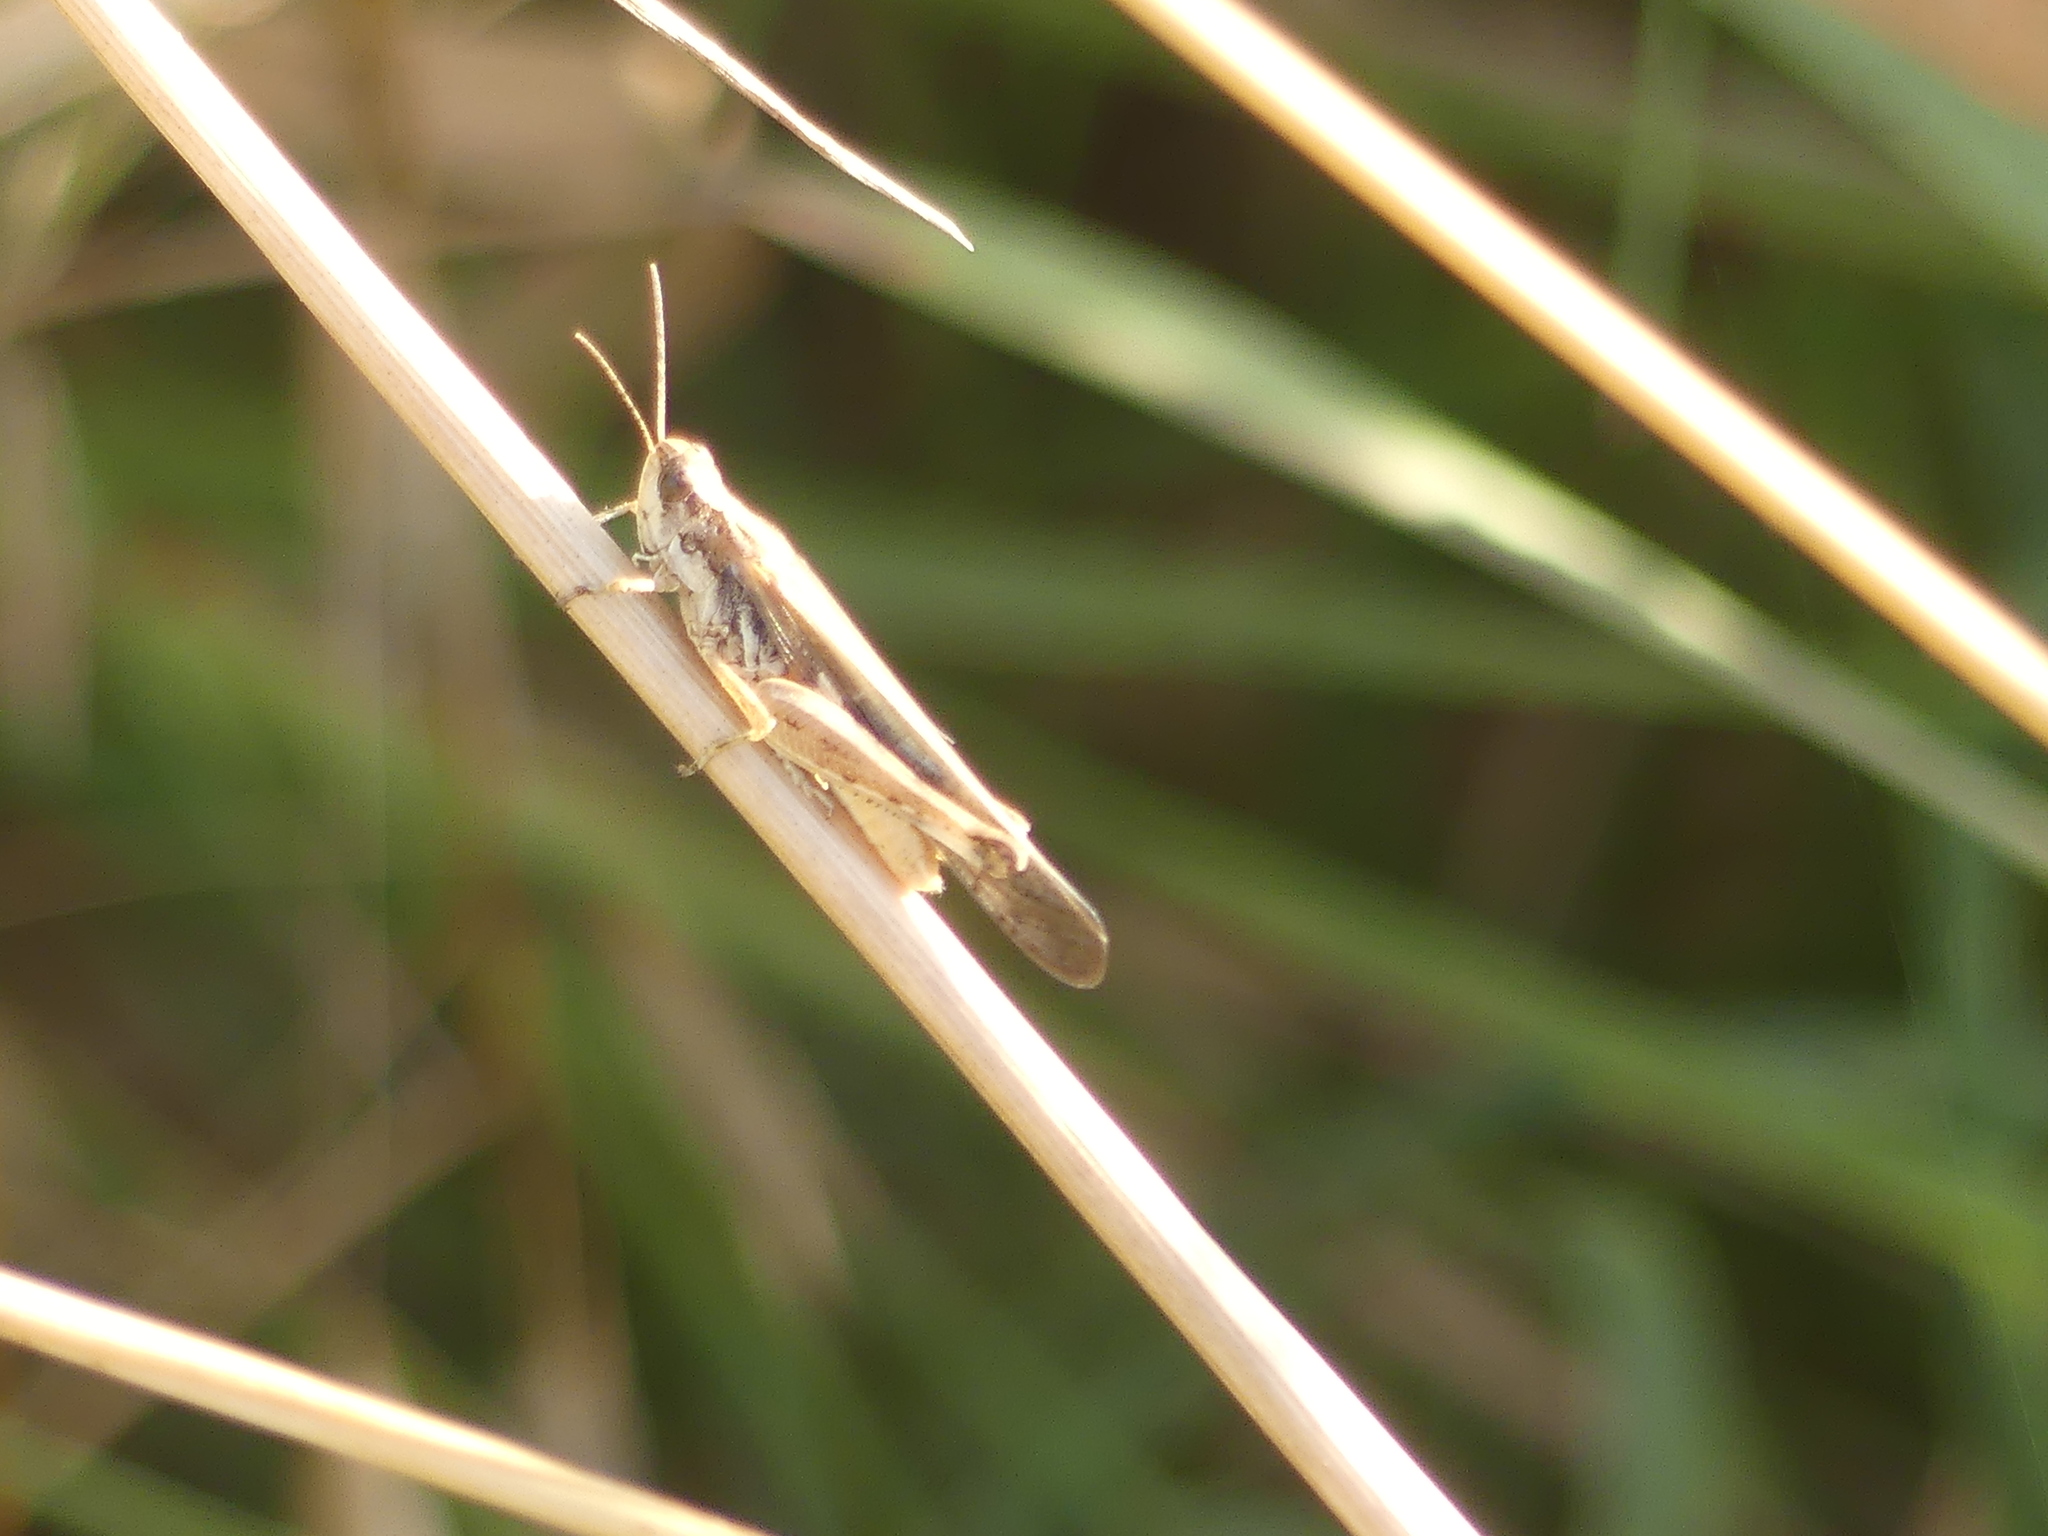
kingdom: Animalia
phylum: Arthropoda
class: Insecta
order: Orthoptera
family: Acrididae
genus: Aiolopus
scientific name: Aiolopus puissanti
